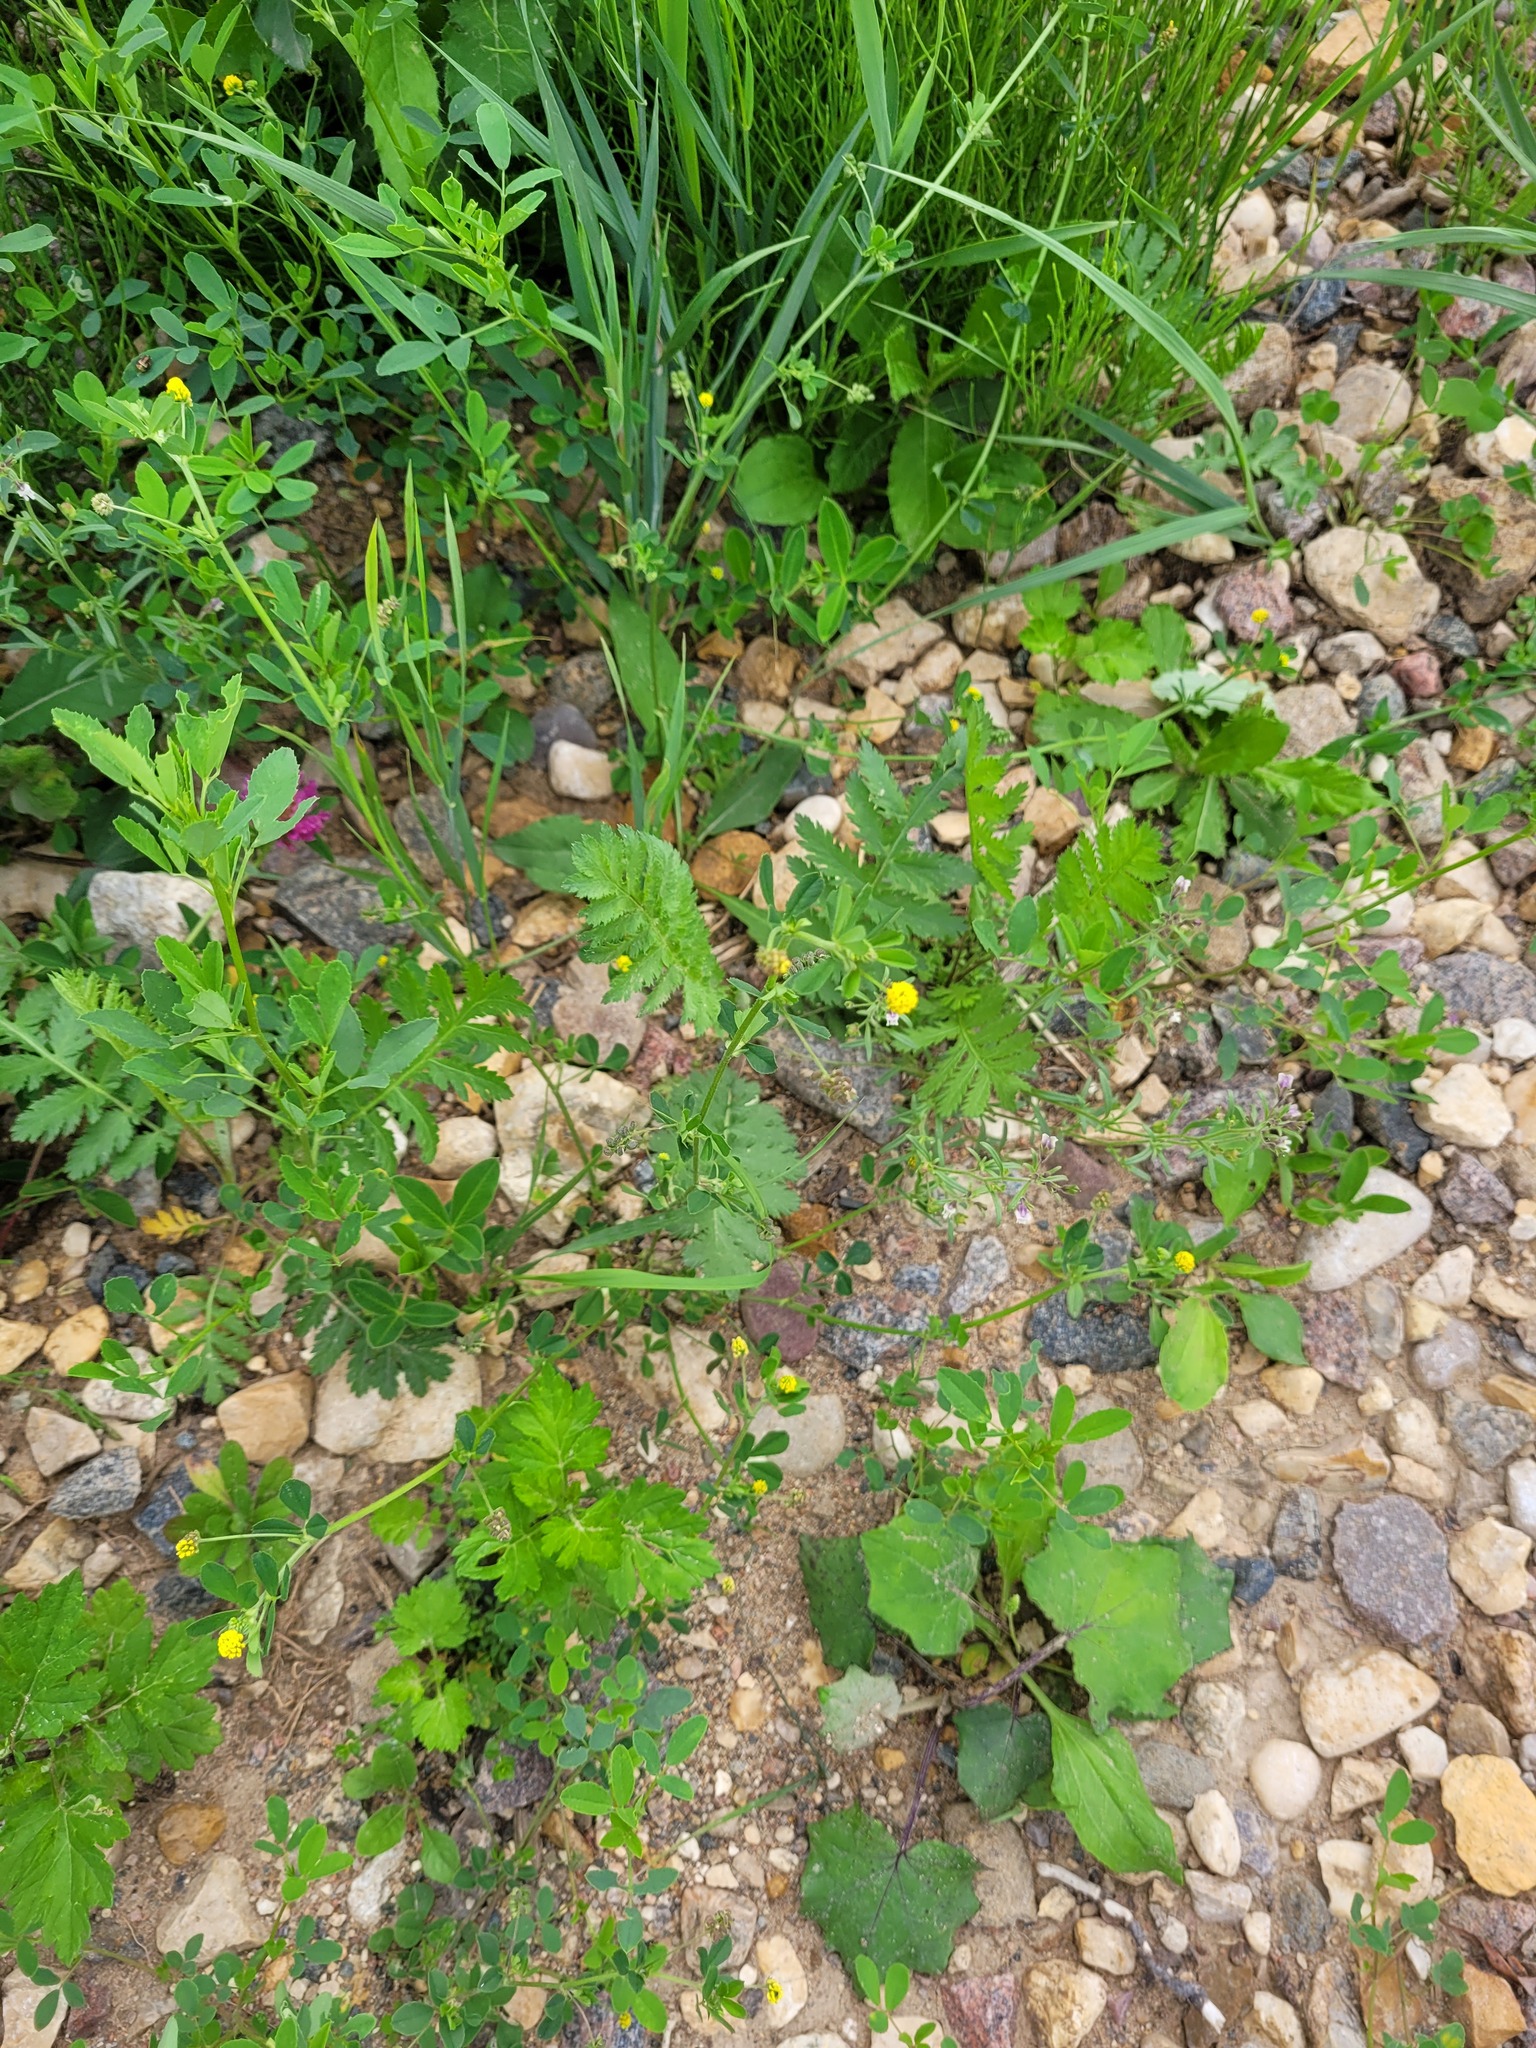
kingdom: Plantae
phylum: Tracheophyta
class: Magnoliopsida
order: Fabales
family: Fabaceae
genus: Medicago
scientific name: Medicago lupulina
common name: Black medick
